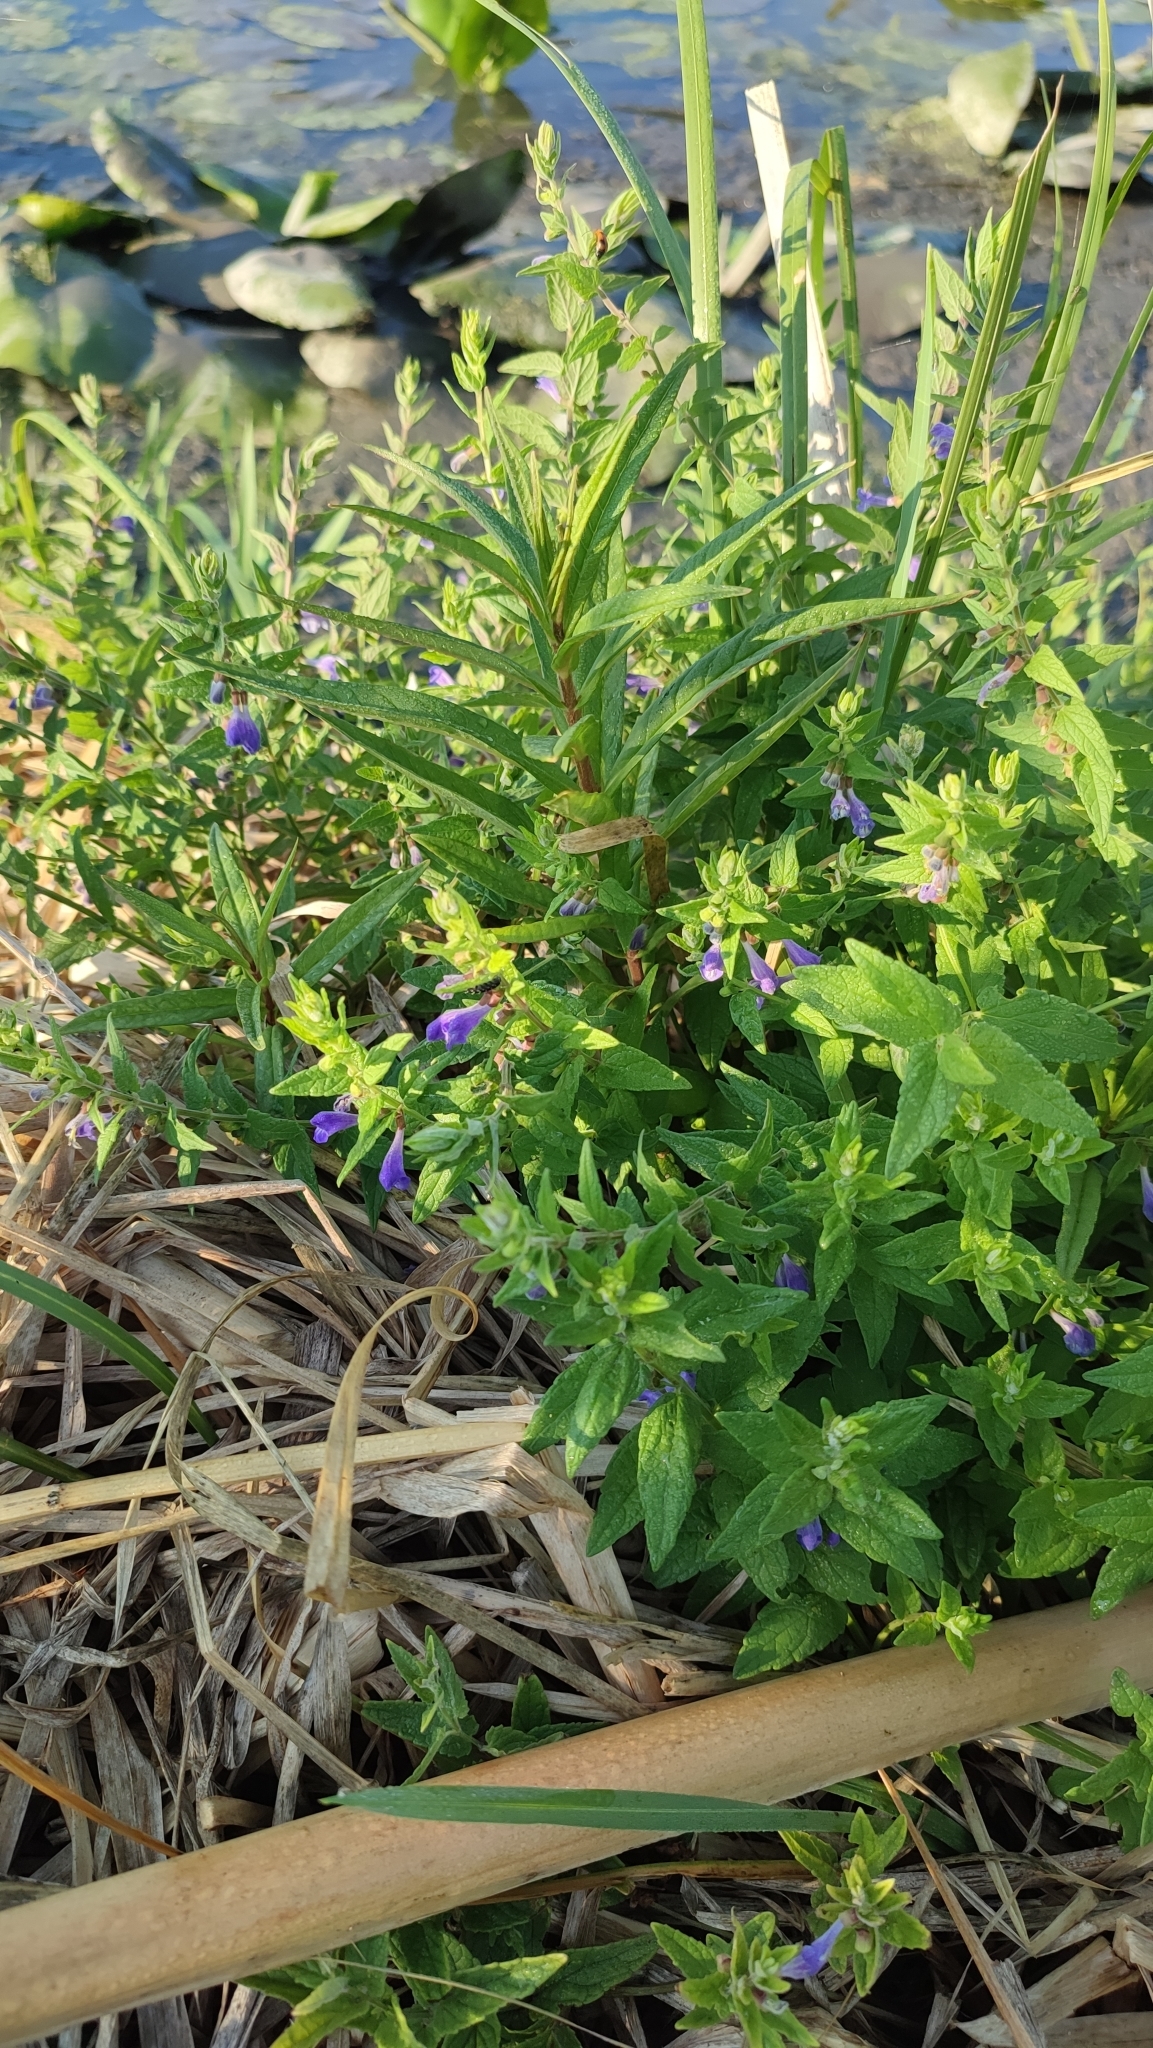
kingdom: Plantae
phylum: Tracheophyta
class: Magnoliopsida
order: Lamiales
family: Lamiaceae
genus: Scutellaria
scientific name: Scutellaria galericulata
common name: Skullcap
